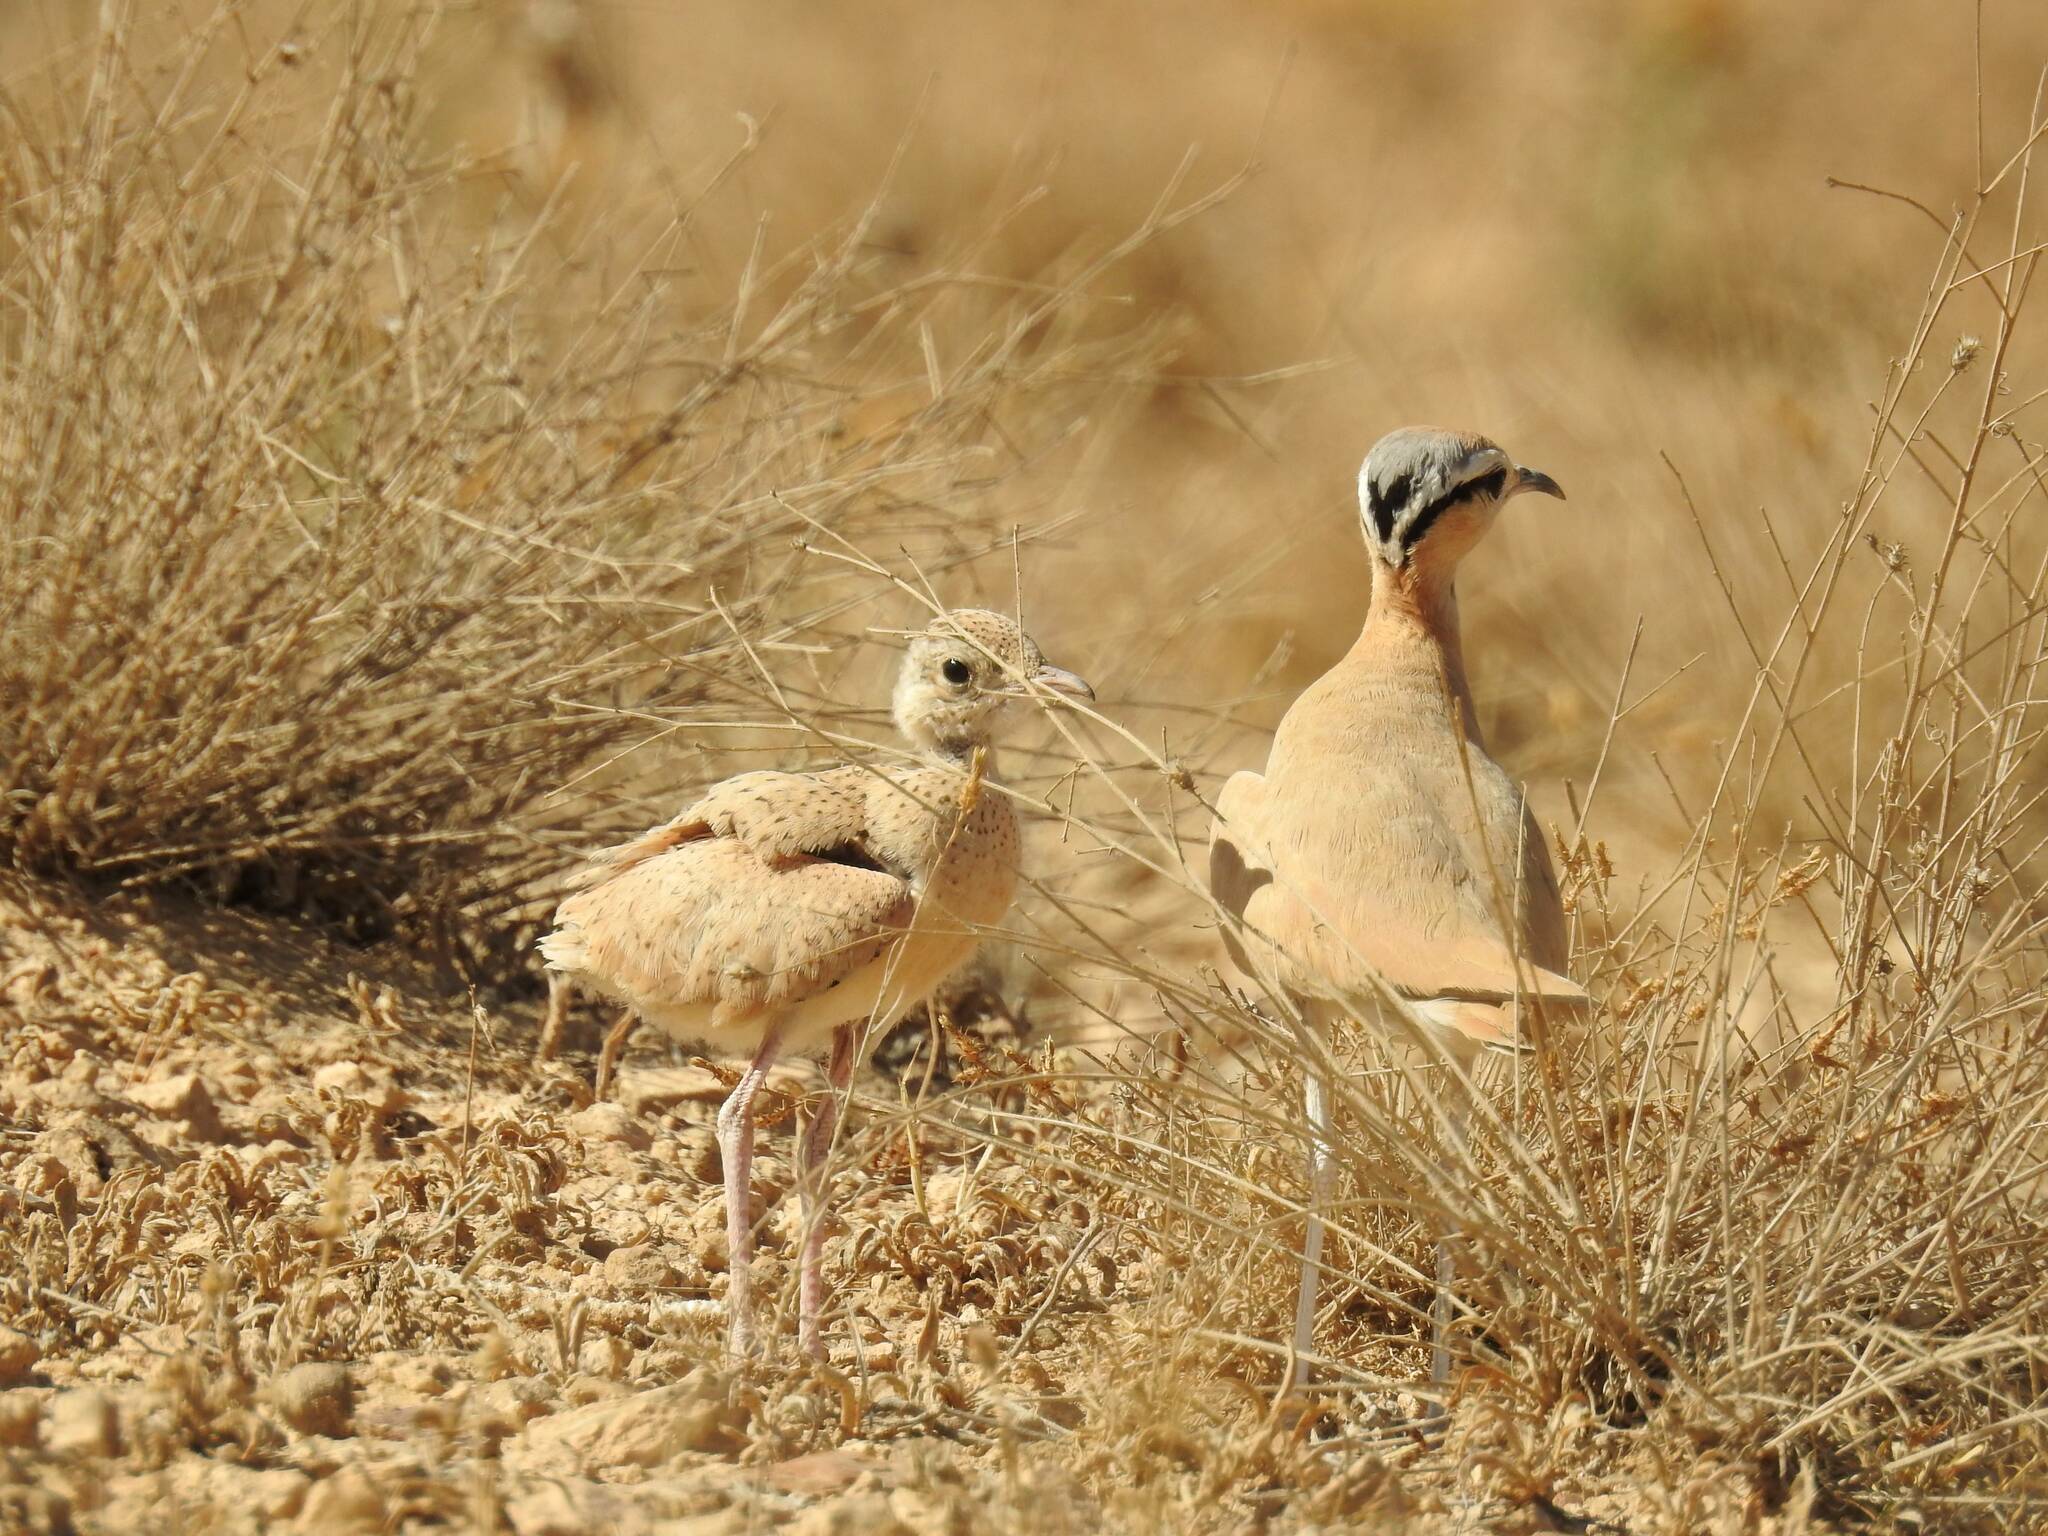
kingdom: Animalia
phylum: Chordata
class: Aves
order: Charadriiformes
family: Glareolidae
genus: Cursorius
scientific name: Cursorius cursor
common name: Cream-colored courser
